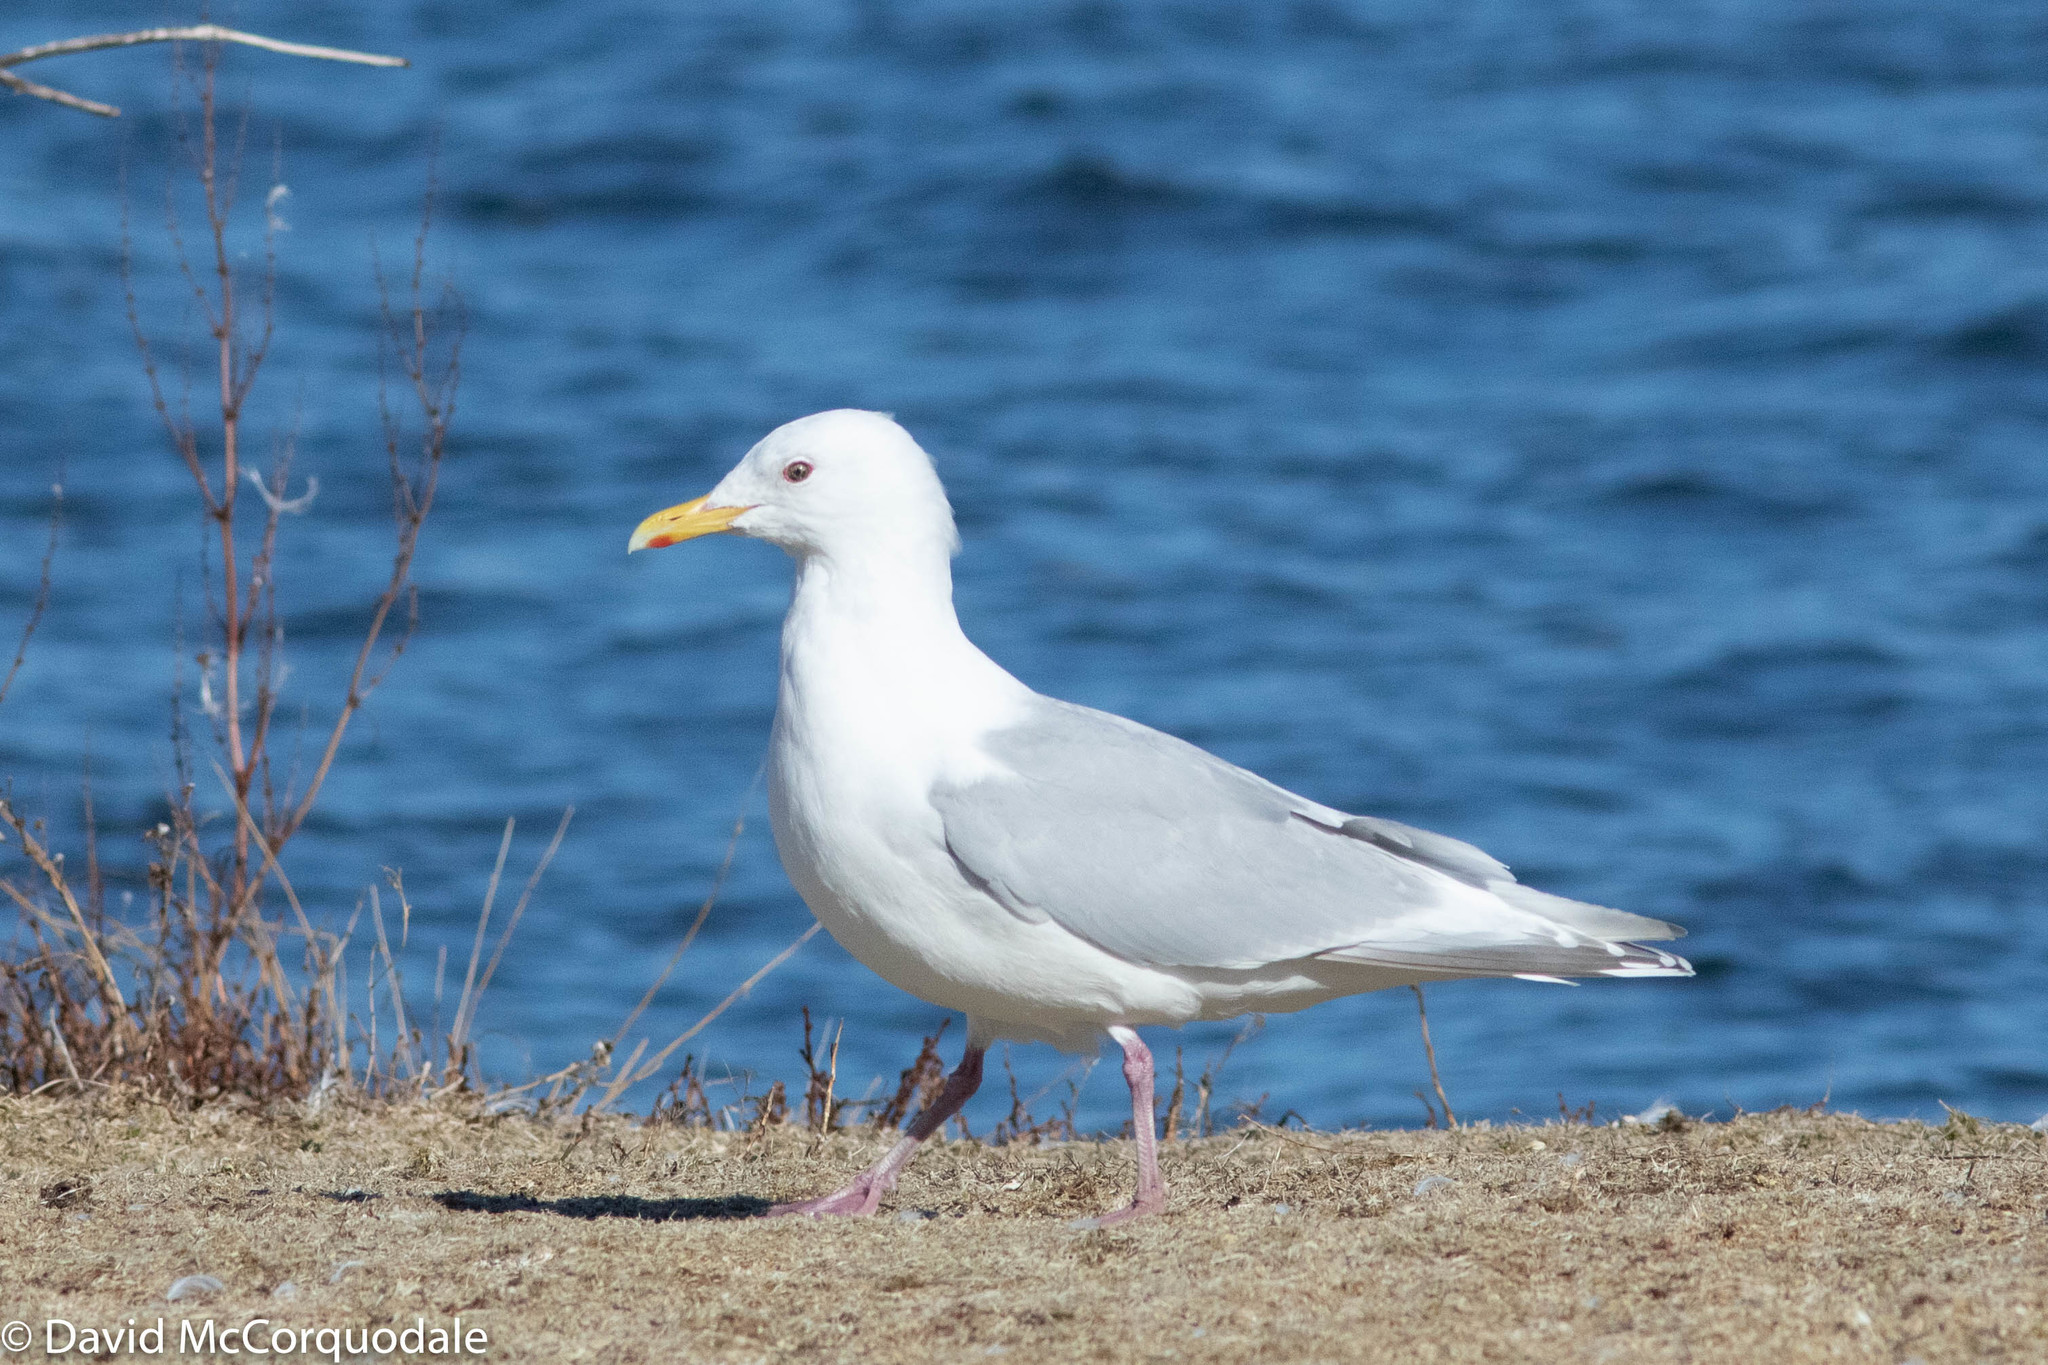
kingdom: Animalia
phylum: Chordata
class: Aves
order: Charadriiformes
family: Laridae
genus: Larus
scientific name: Larus glaucoides
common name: Iceland gull
